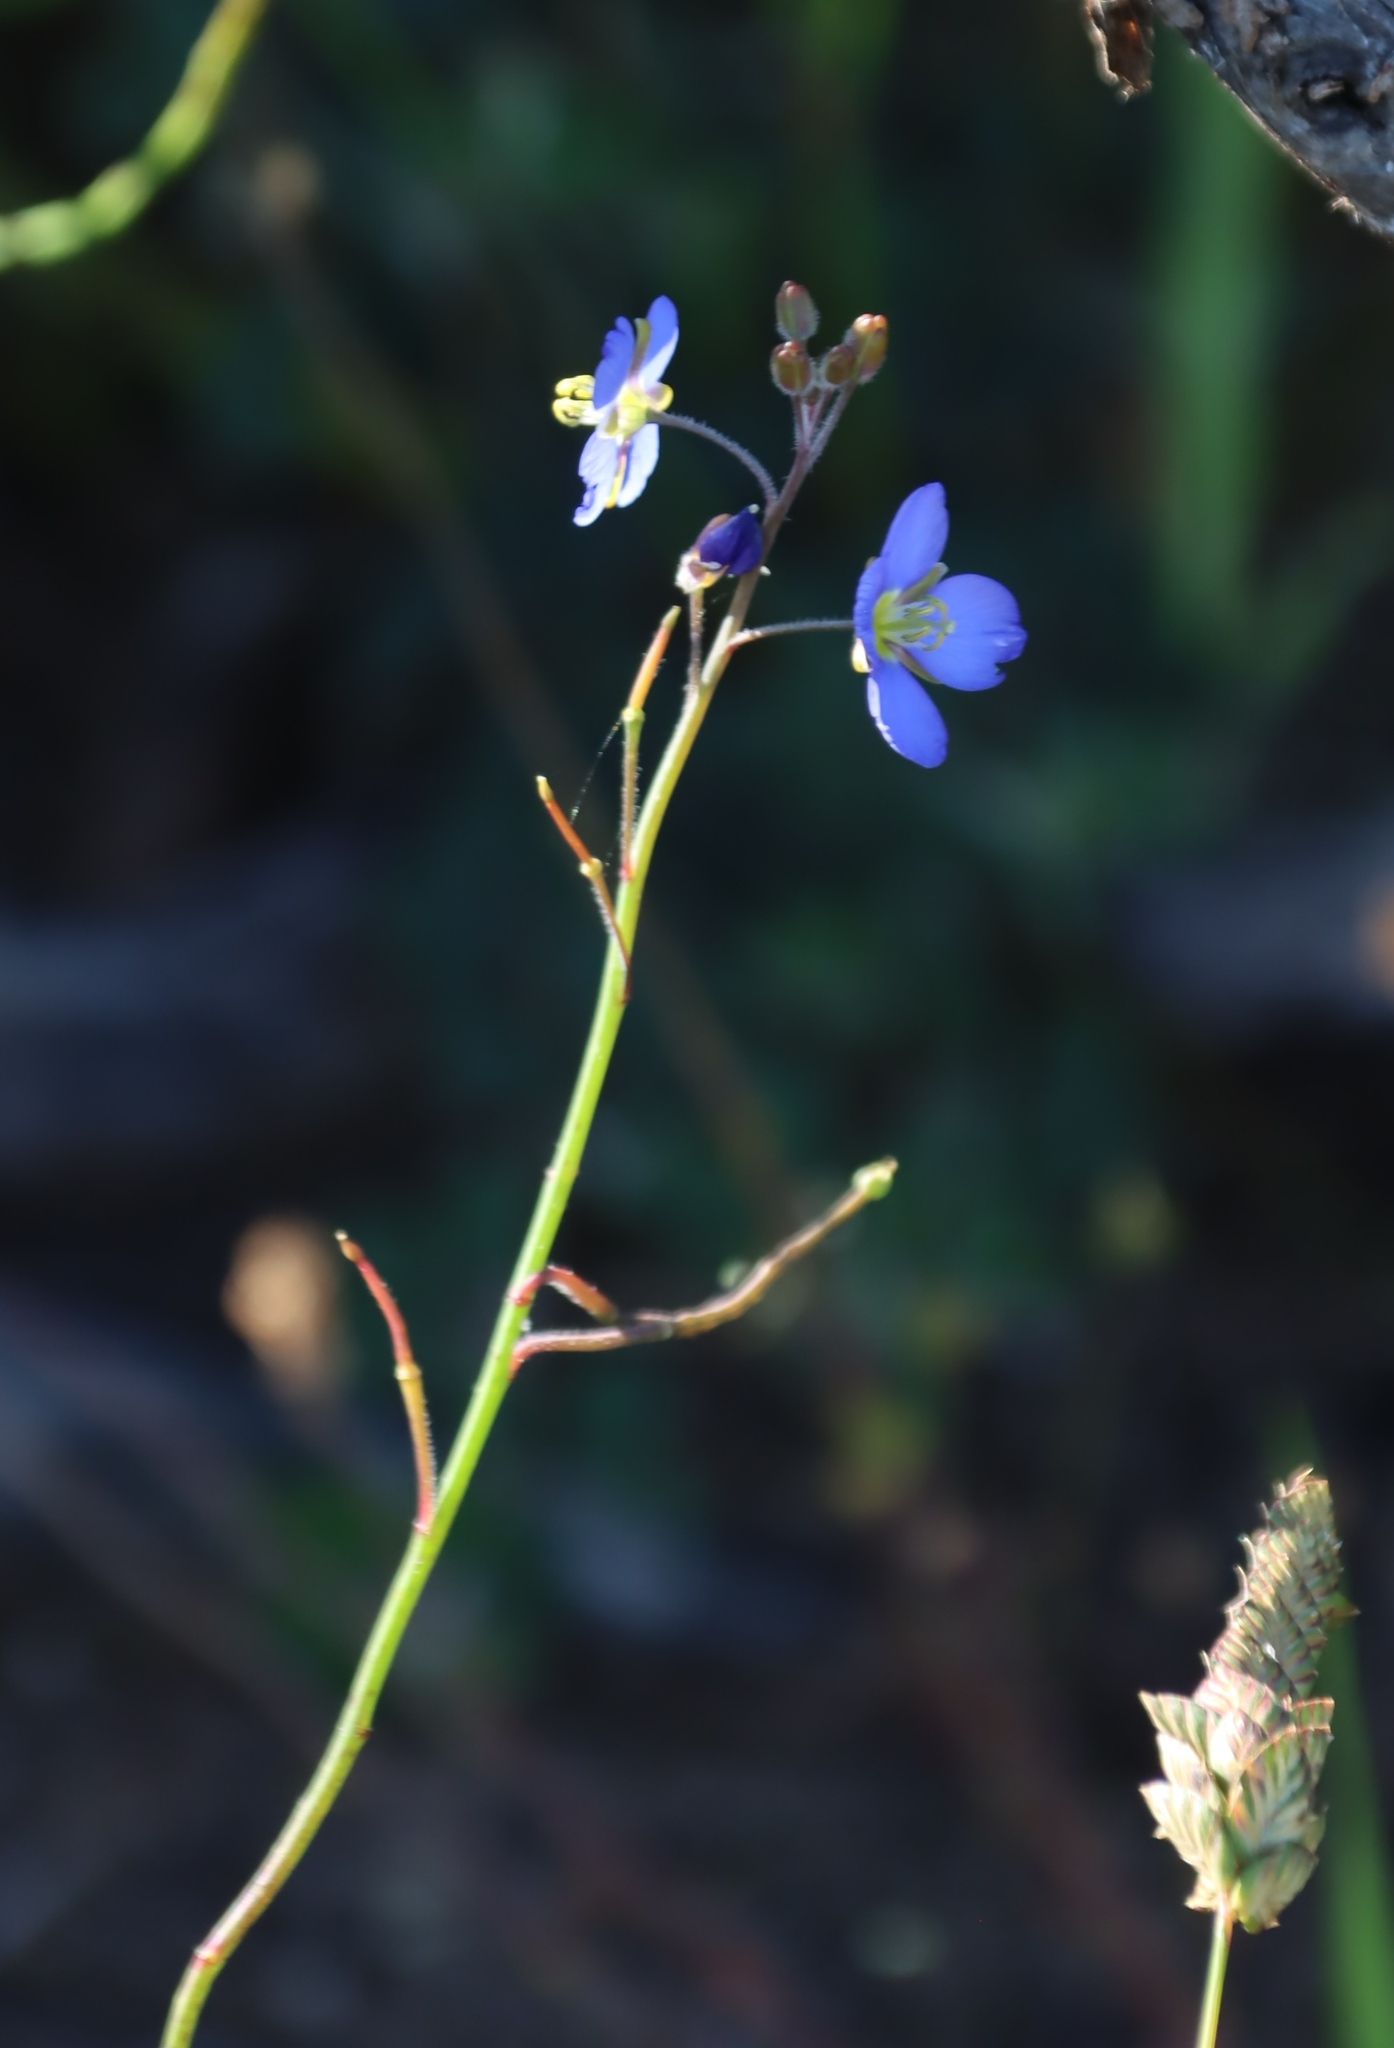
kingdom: Plantae
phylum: Tracheophyta
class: Magnoliopsida
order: Brassicales
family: Brassicaceae
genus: Heliophila
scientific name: Heliophila africana
